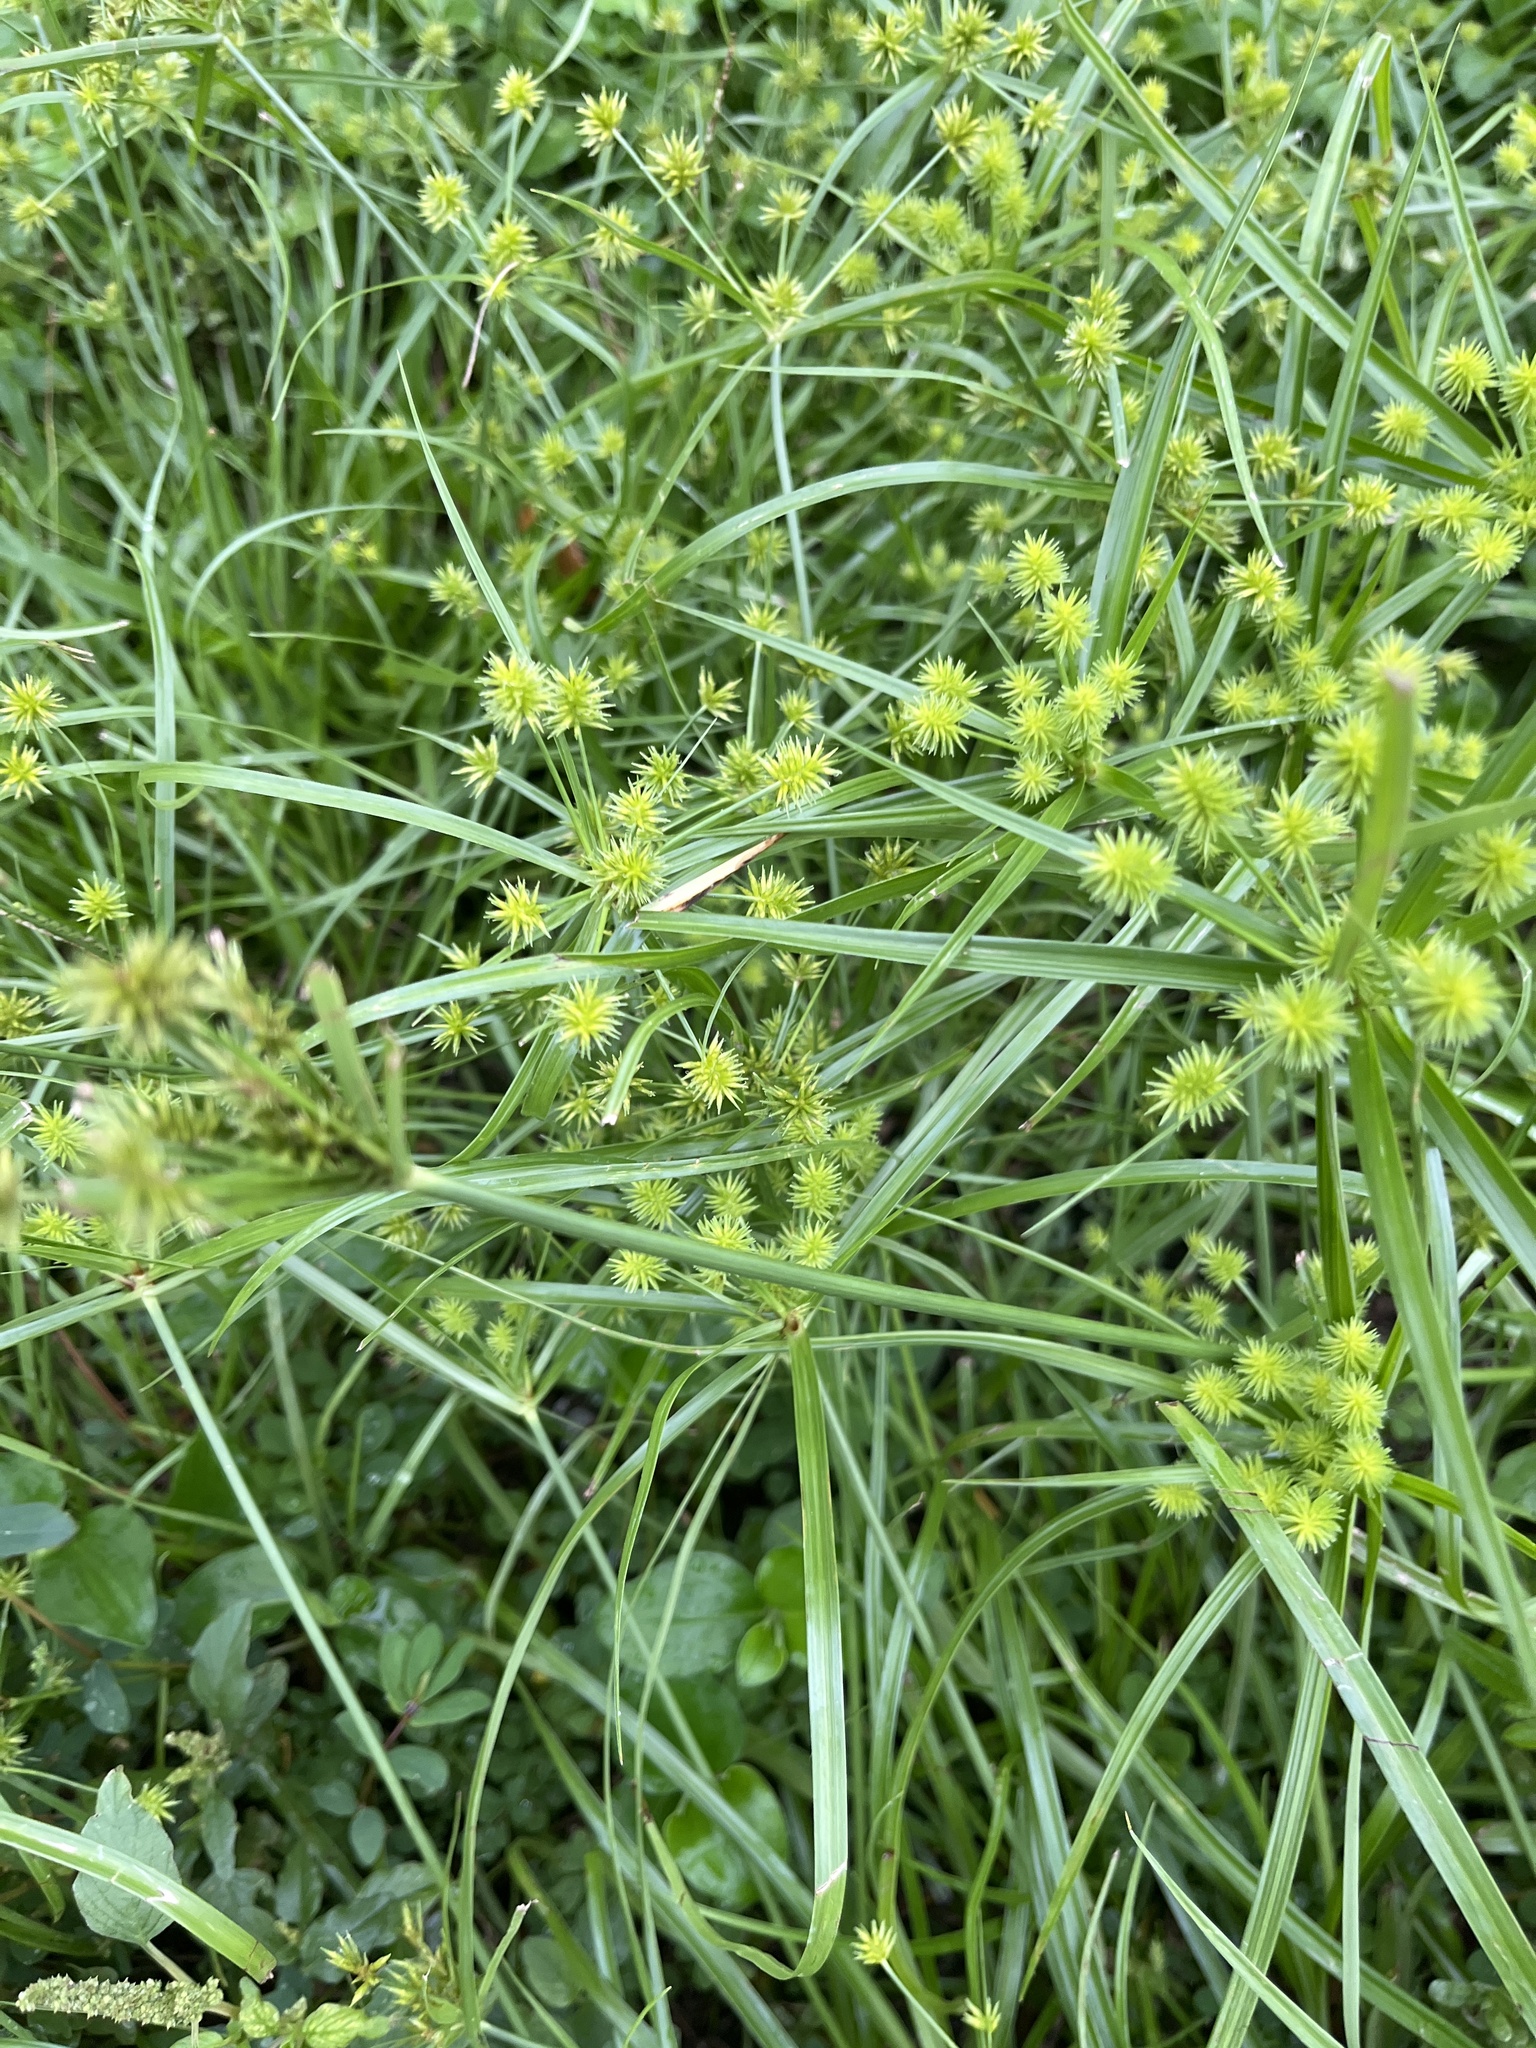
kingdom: Plantae
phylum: Tracheophyta
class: Liliopsida
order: Poales
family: Cyperaceae
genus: Cyperus
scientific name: Cyperus croceus
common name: Baldwin's flatsedge
